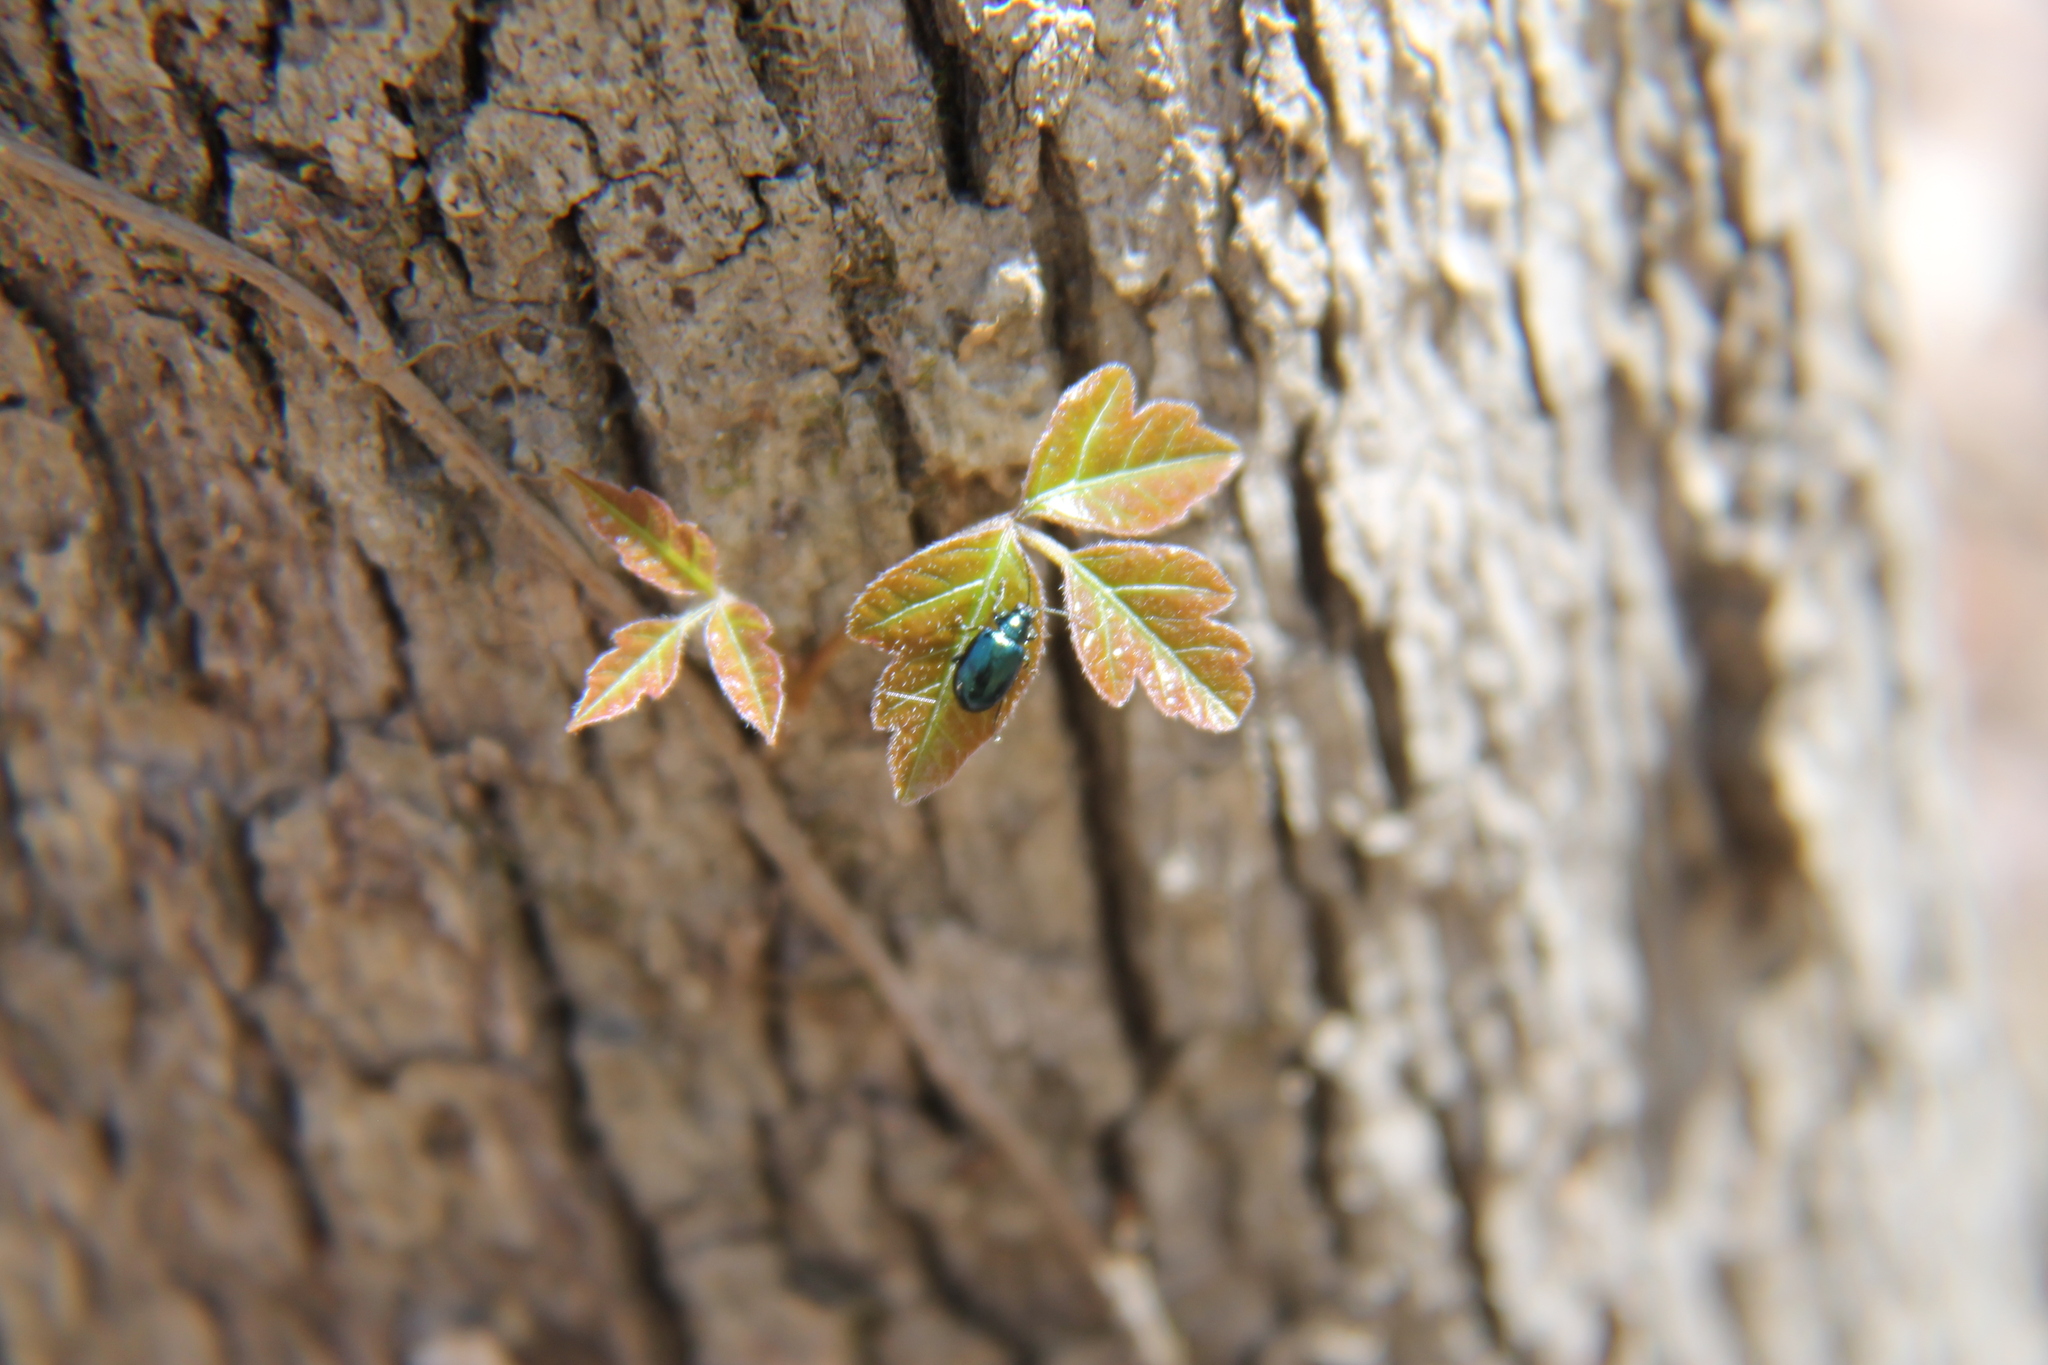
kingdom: Plantae
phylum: Tracheophyta
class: Magnoliopsida
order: Sapindales
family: Anacardiaceae
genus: Toxicodendron
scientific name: Toxicodendron radicans
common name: Poison ivy
